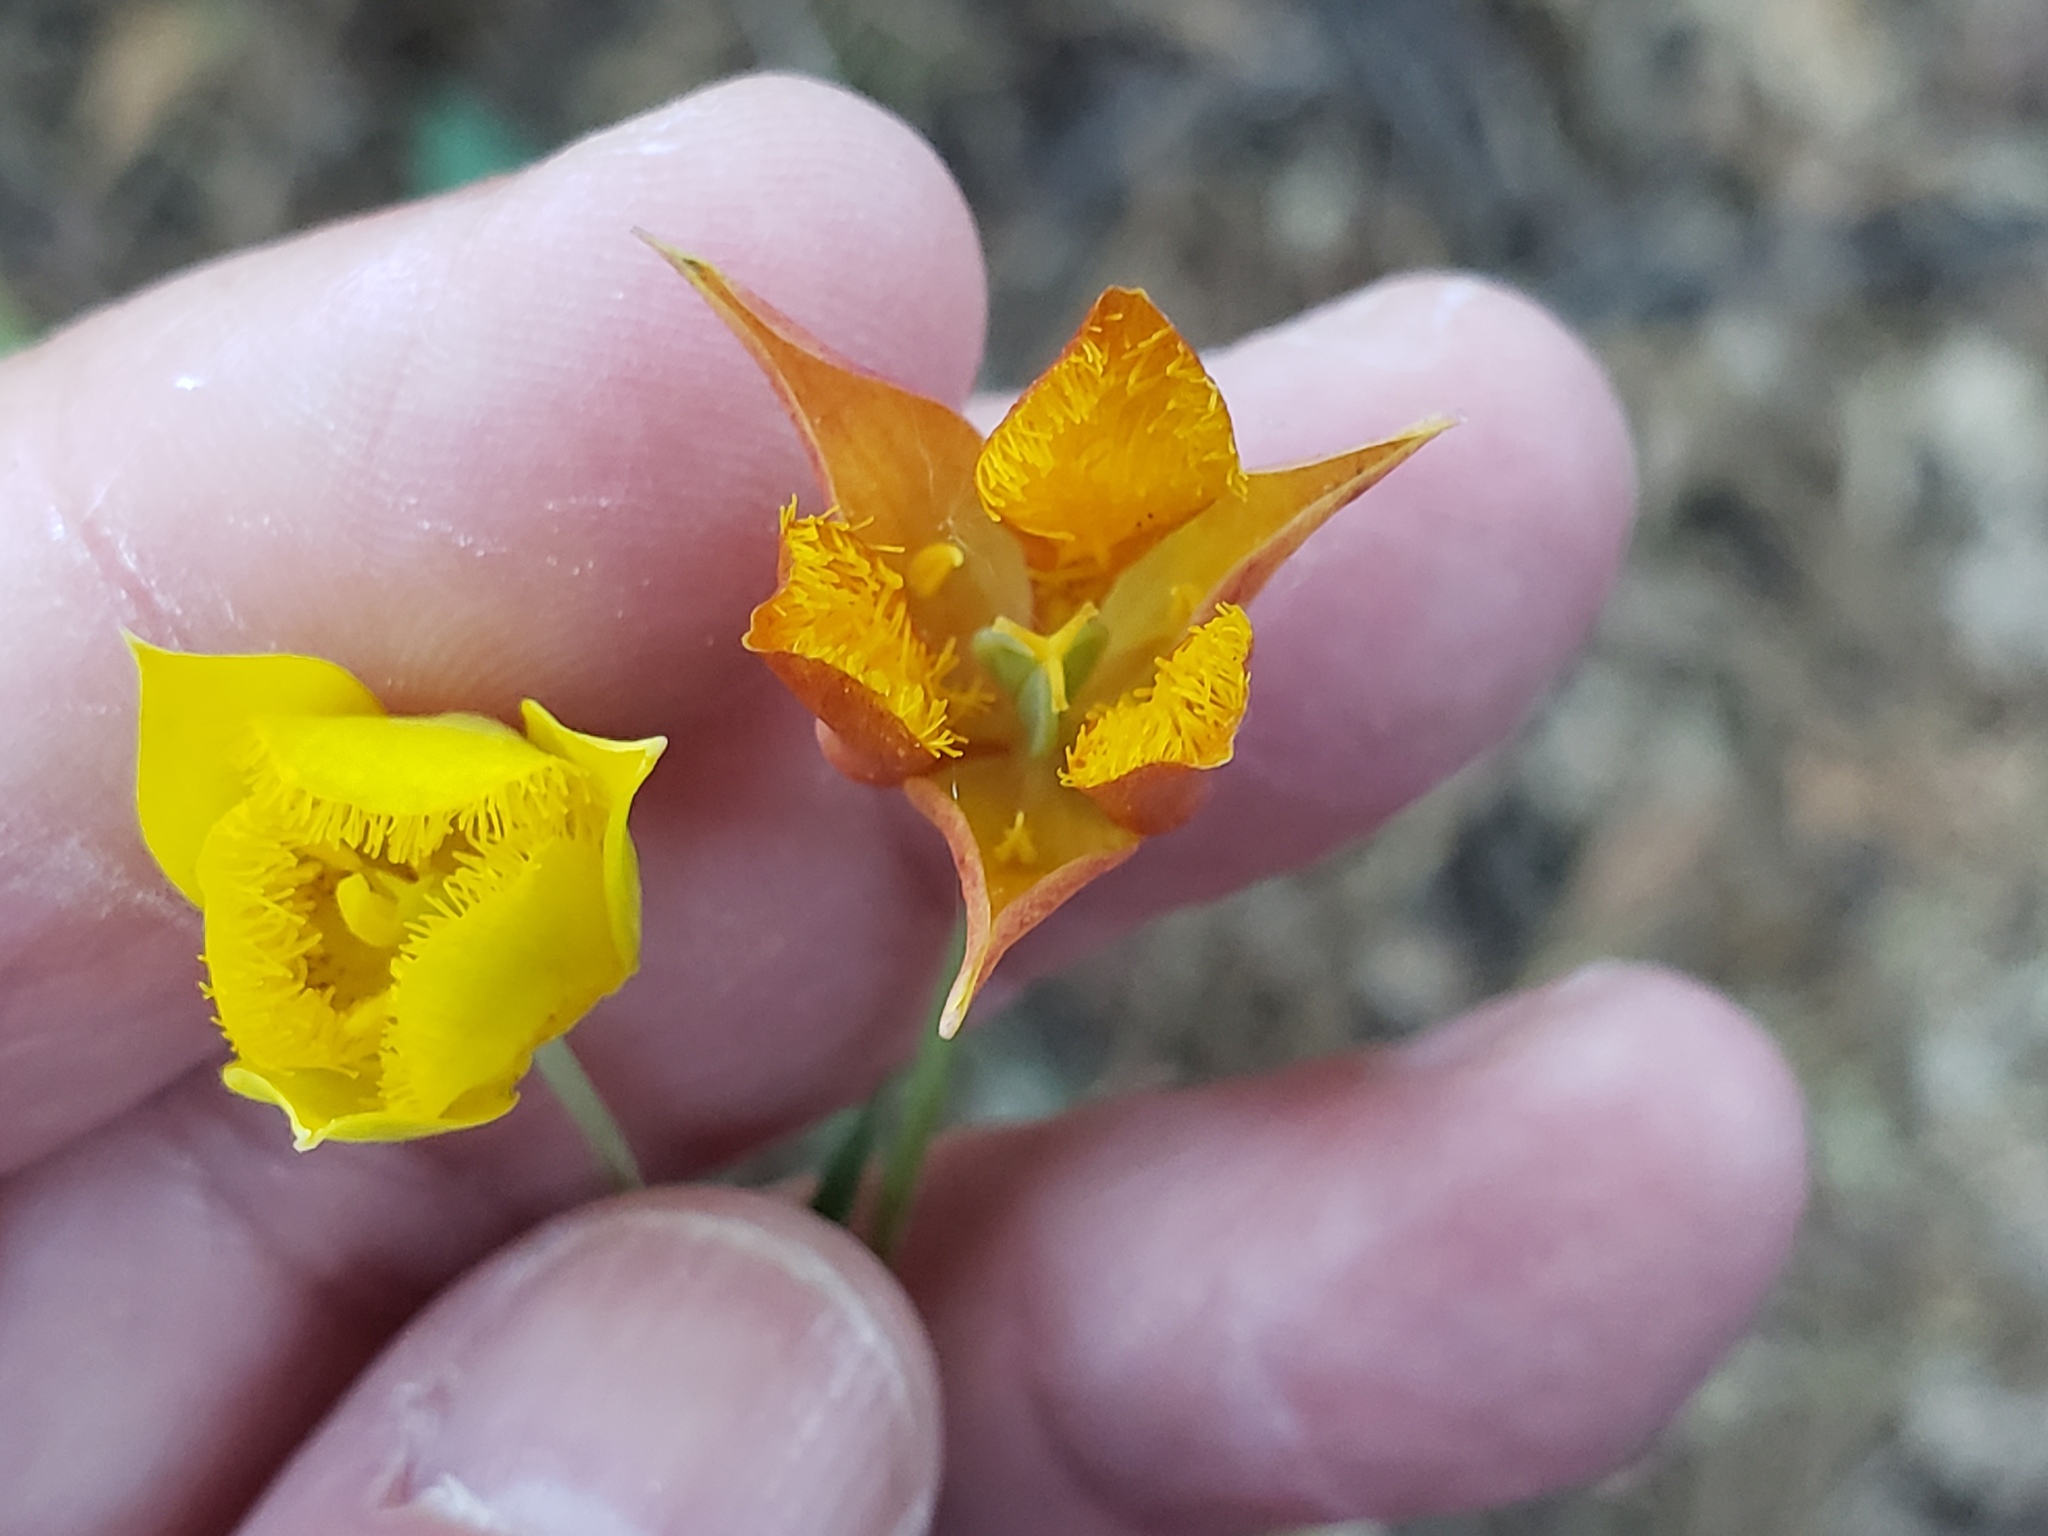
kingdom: Plantae
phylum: Tracheophyta
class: Liliopsida
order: Liliales
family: Liliaceae
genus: Calochortus
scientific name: Calochortus monophyllus
